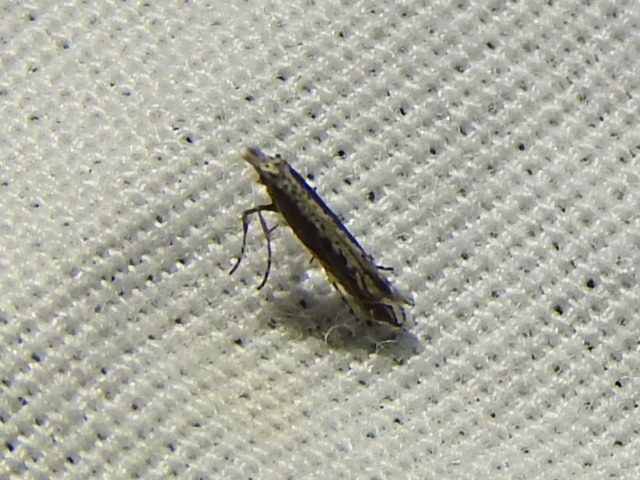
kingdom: Plantae
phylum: Rhodophyta
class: Florideophyceae
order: Gracilariales
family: Gracilariaceae
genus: Gracilaria
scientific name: Gracilaria
